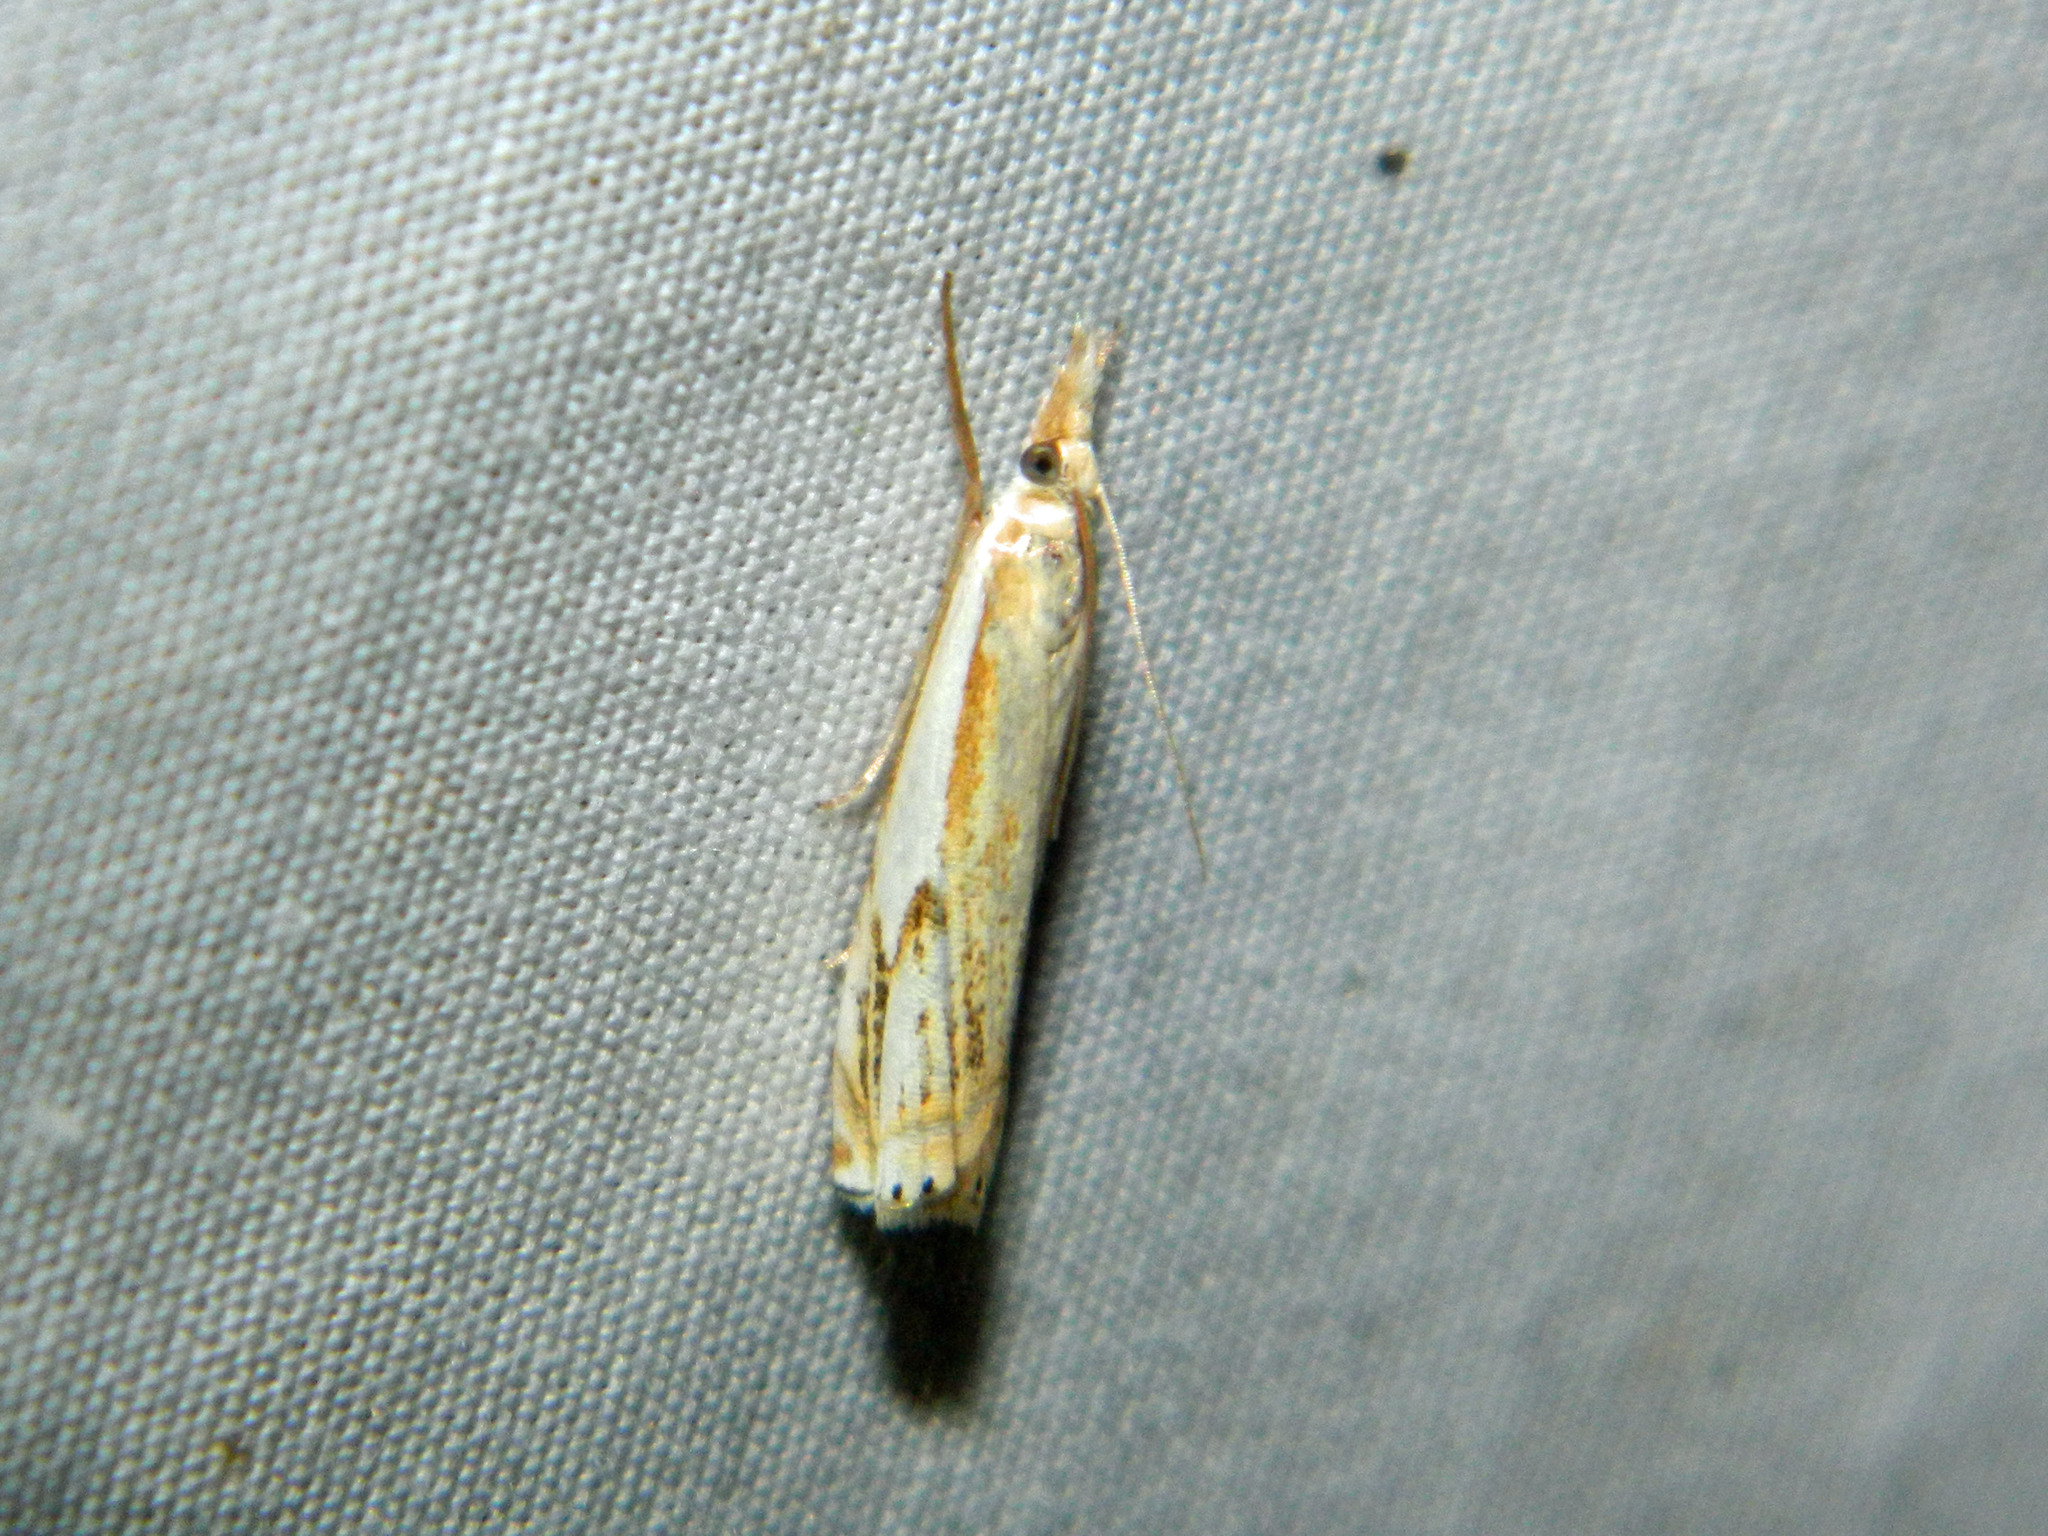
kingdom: Animalia
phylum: Arthropoda
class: Insecta
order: Lepidoptera
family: Crambidae
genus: Crambus
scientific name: Crambus agitatellus
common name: Double-banded grass-veneer
